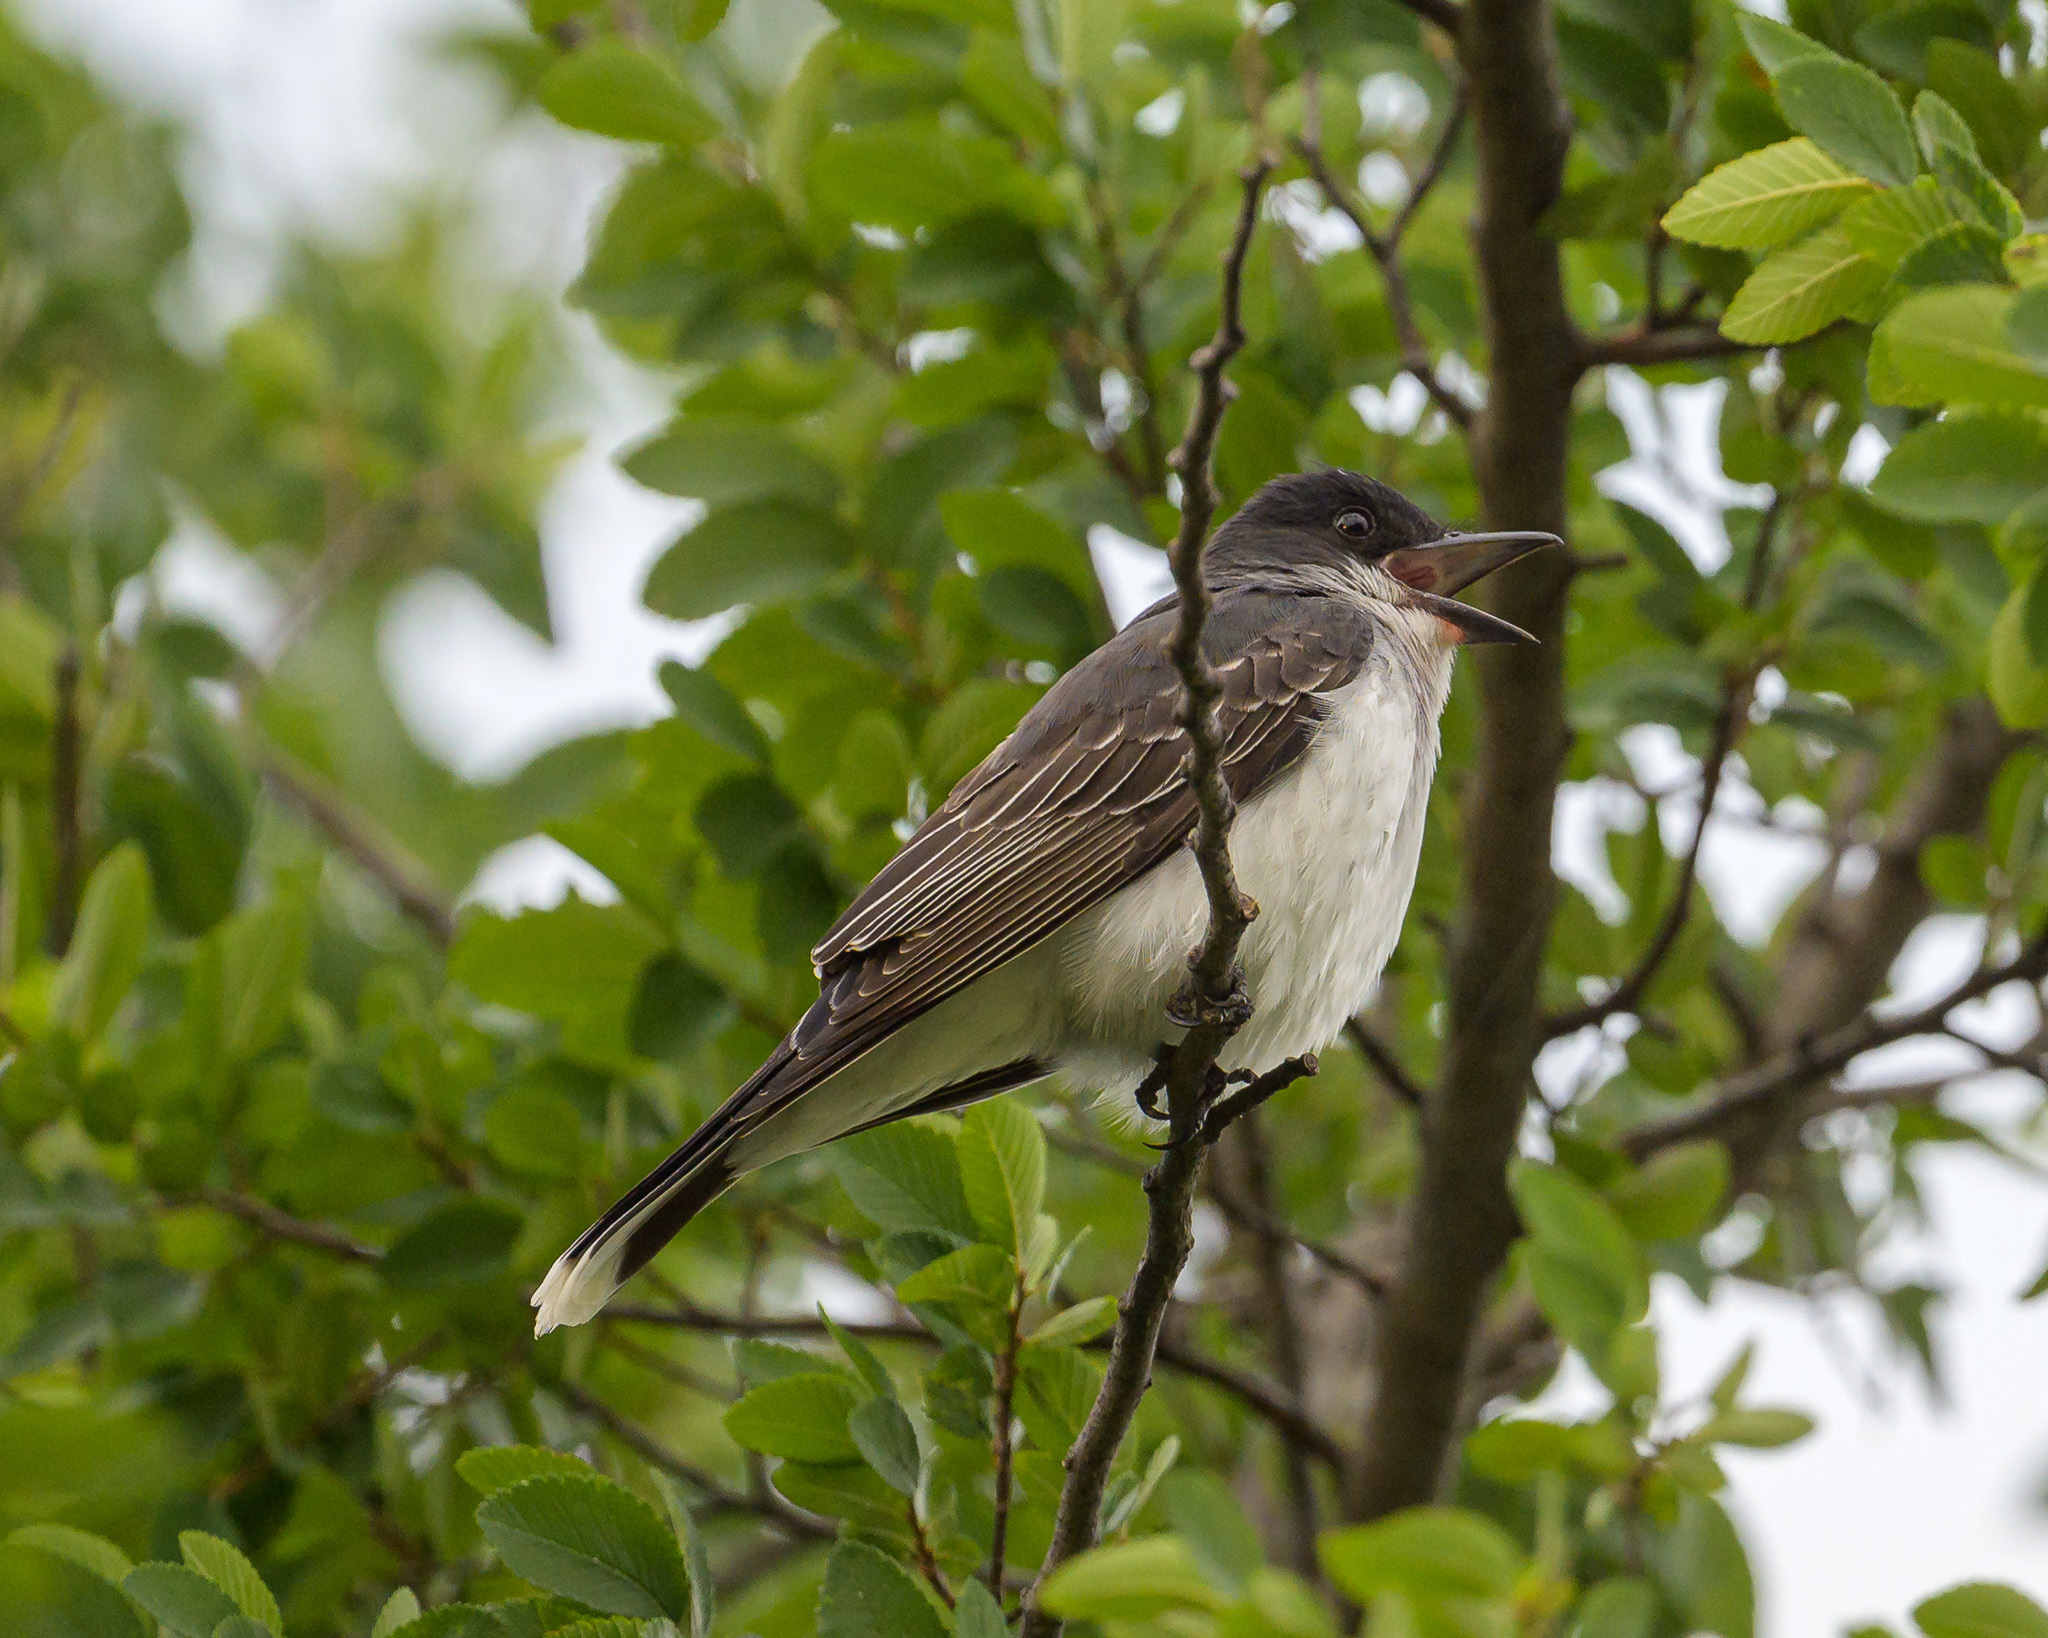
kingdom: Animalia
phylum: Chordata
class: Aves
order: Passeriformes
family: Tyrannidae
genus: Tyrannus
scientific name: Tyrannus tyrannus
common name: Eastern kingbird
